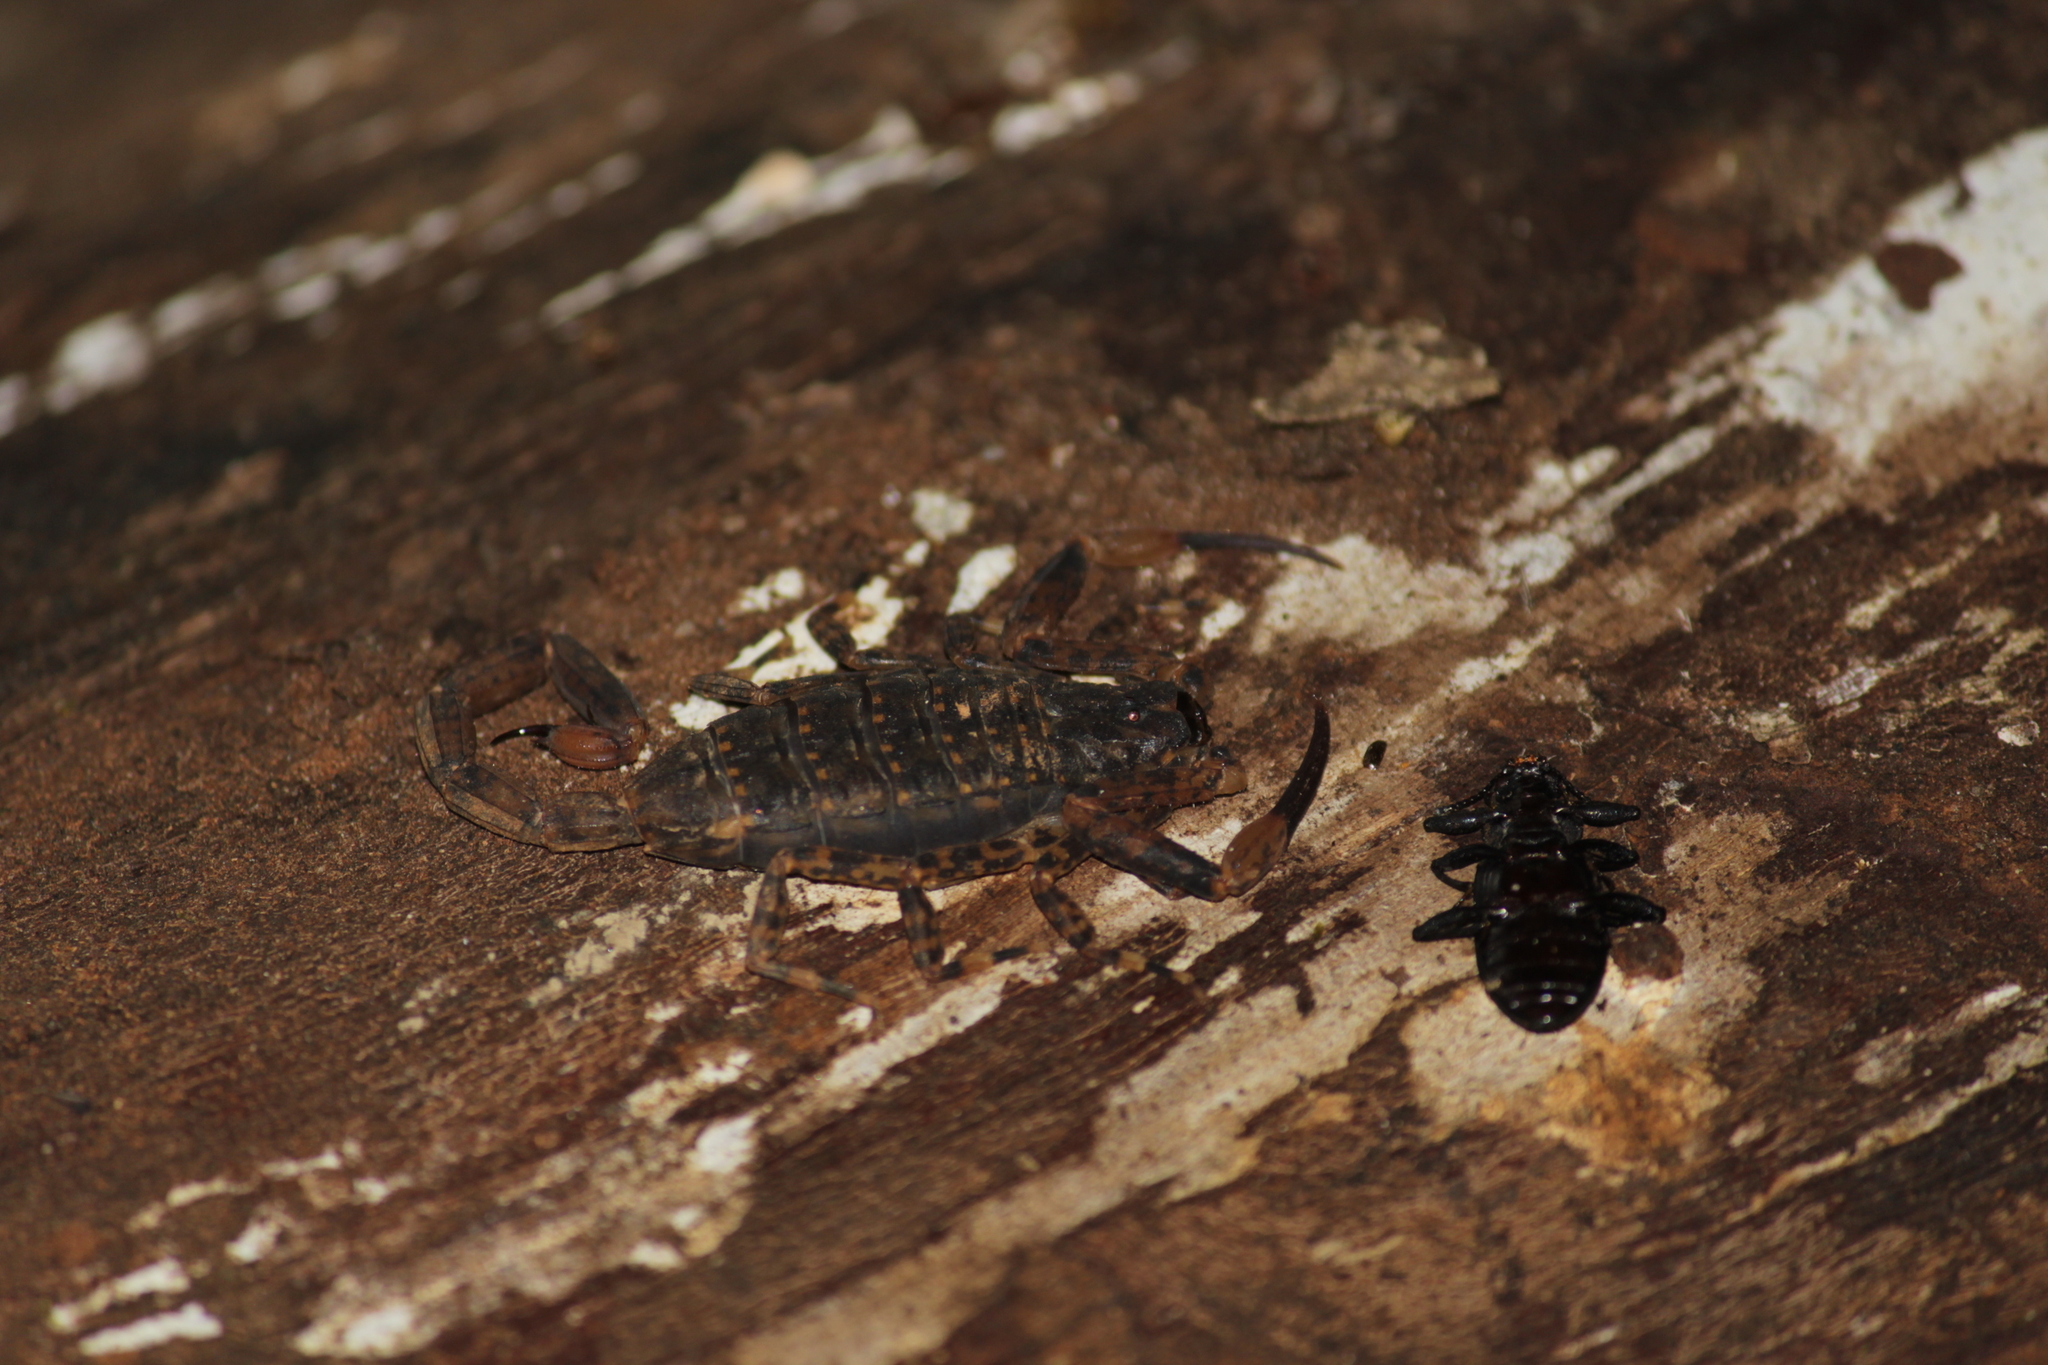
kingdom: Animalia
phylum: Arthropoda
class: Arachnida
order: Scorpiones
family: Buthidae
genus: Isometrus
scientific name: Isometrus thurstoni
